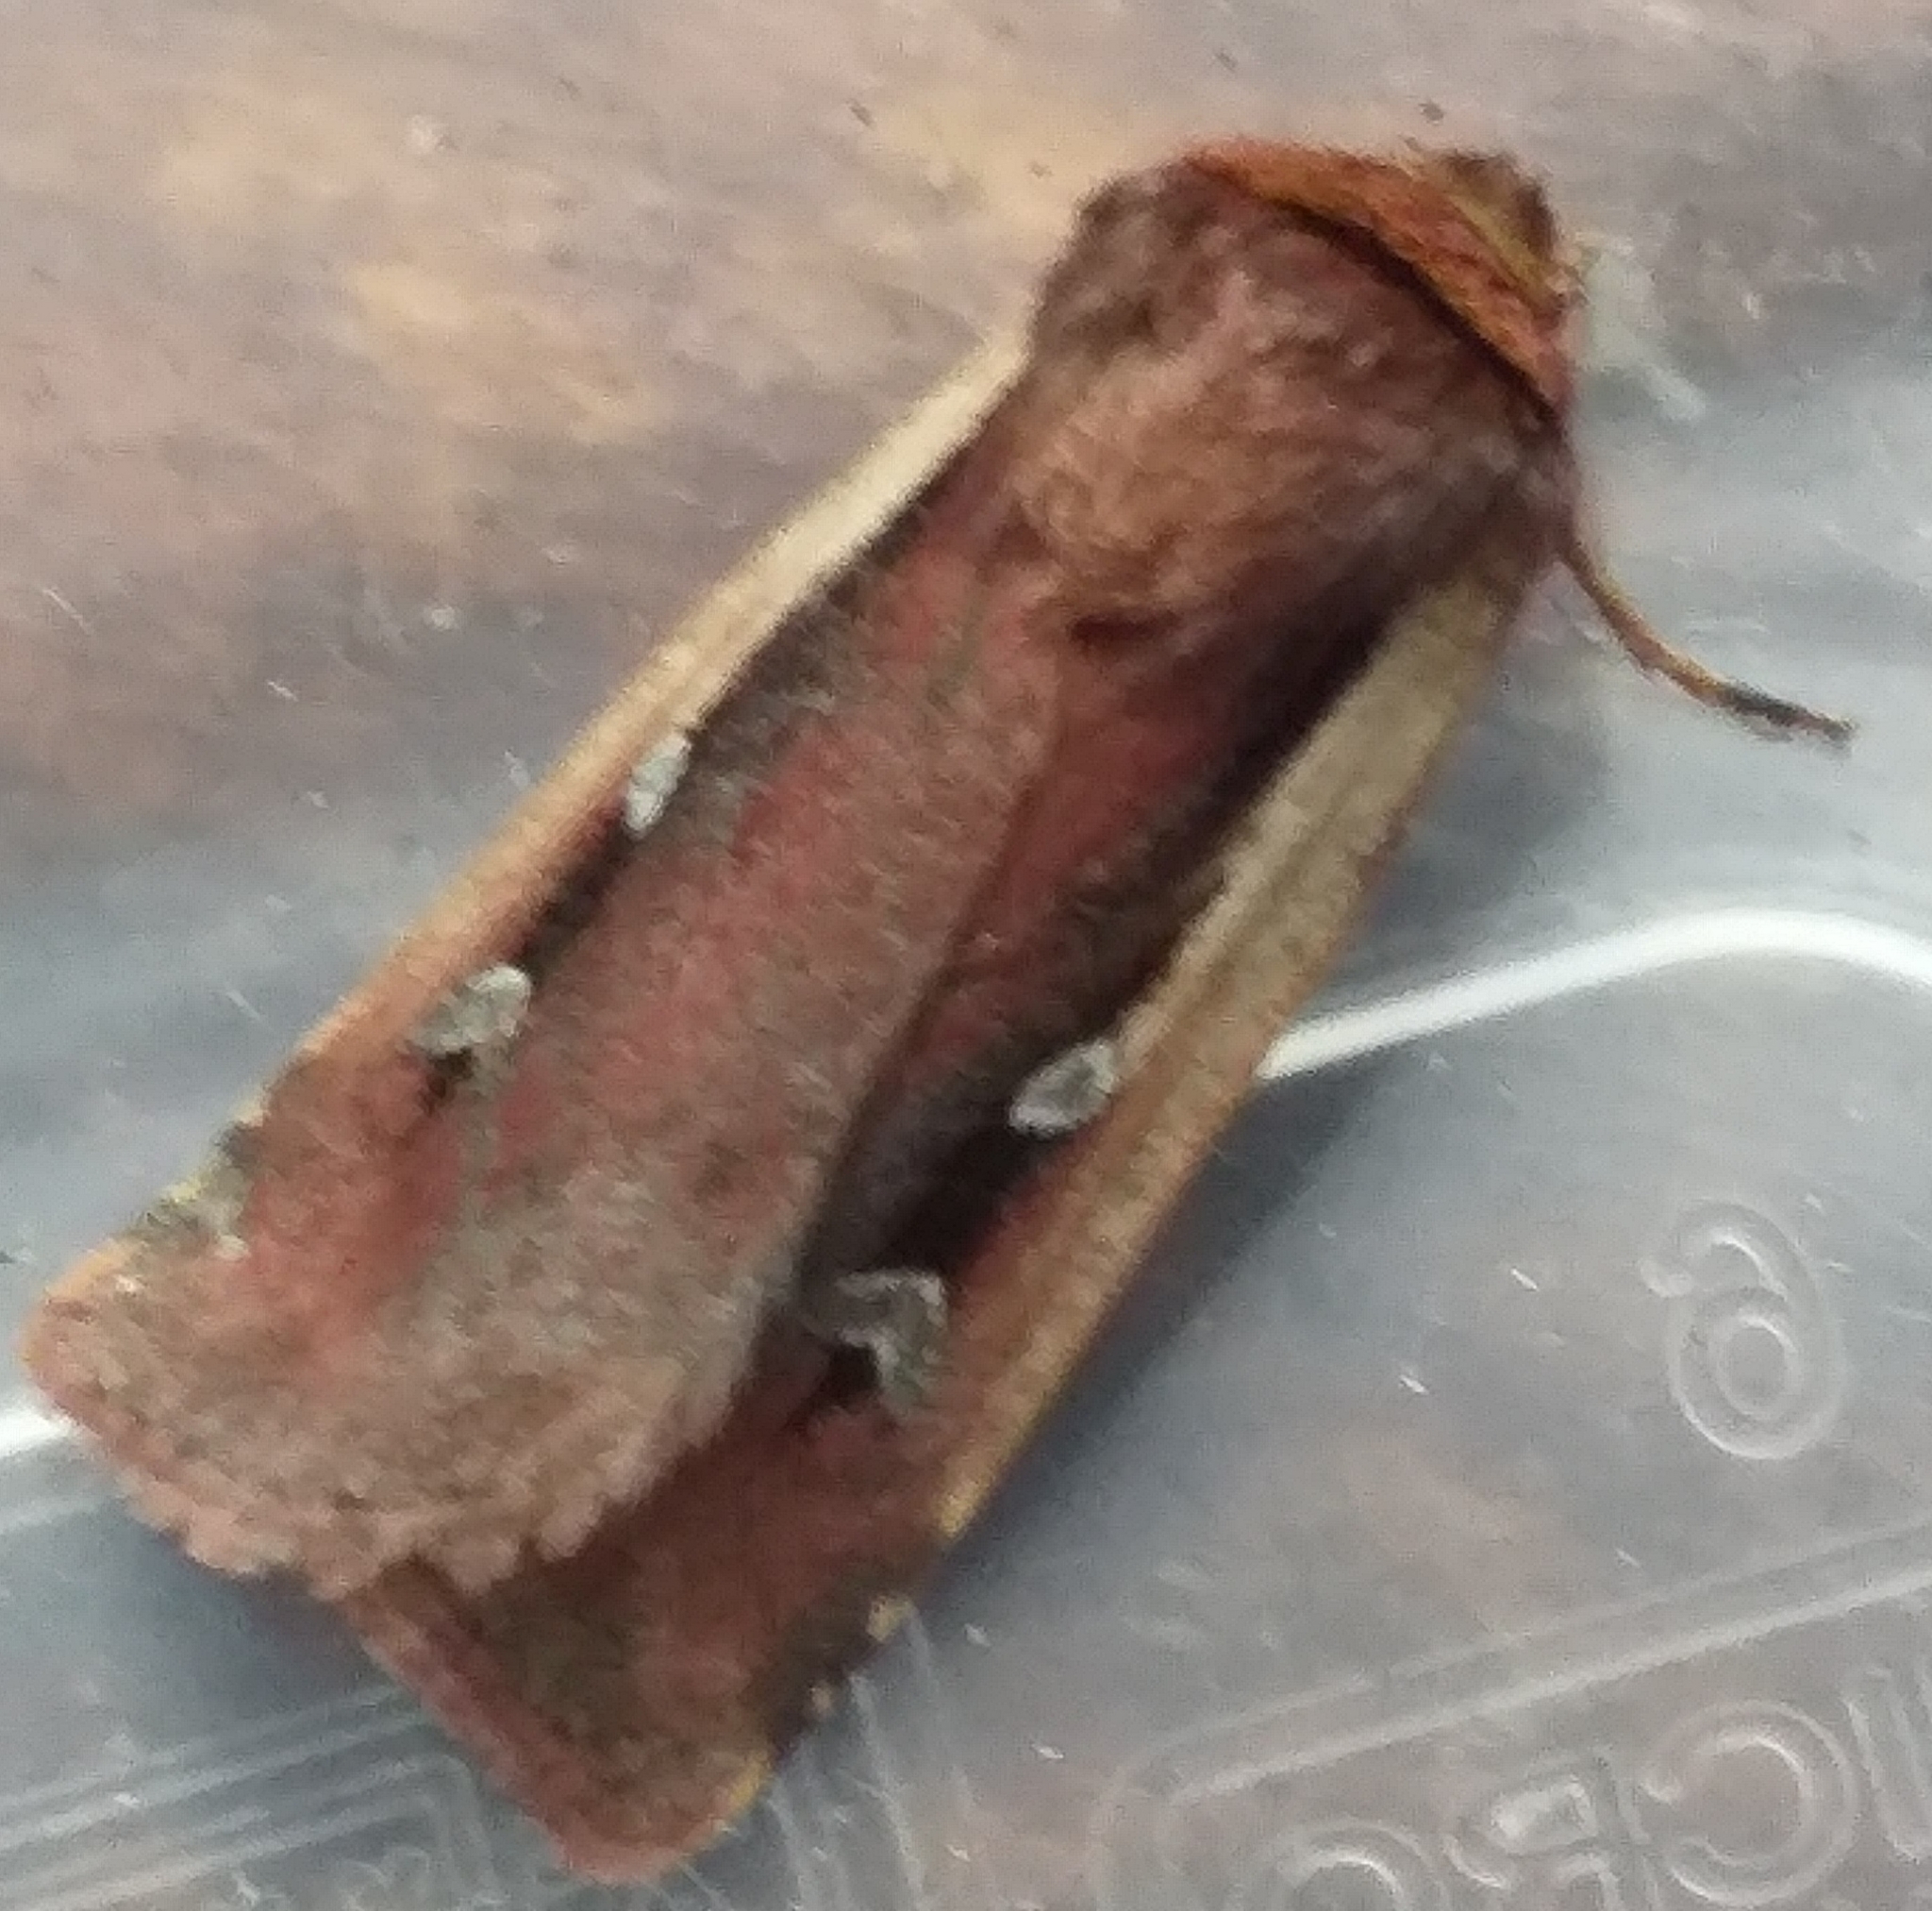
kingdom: Animalia
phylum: Arthropoda
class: Insecta
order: Lepidoptera
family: Noctuidae
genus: Ochropleura
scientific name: Ochropleura plecta
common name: Flame shoulder
